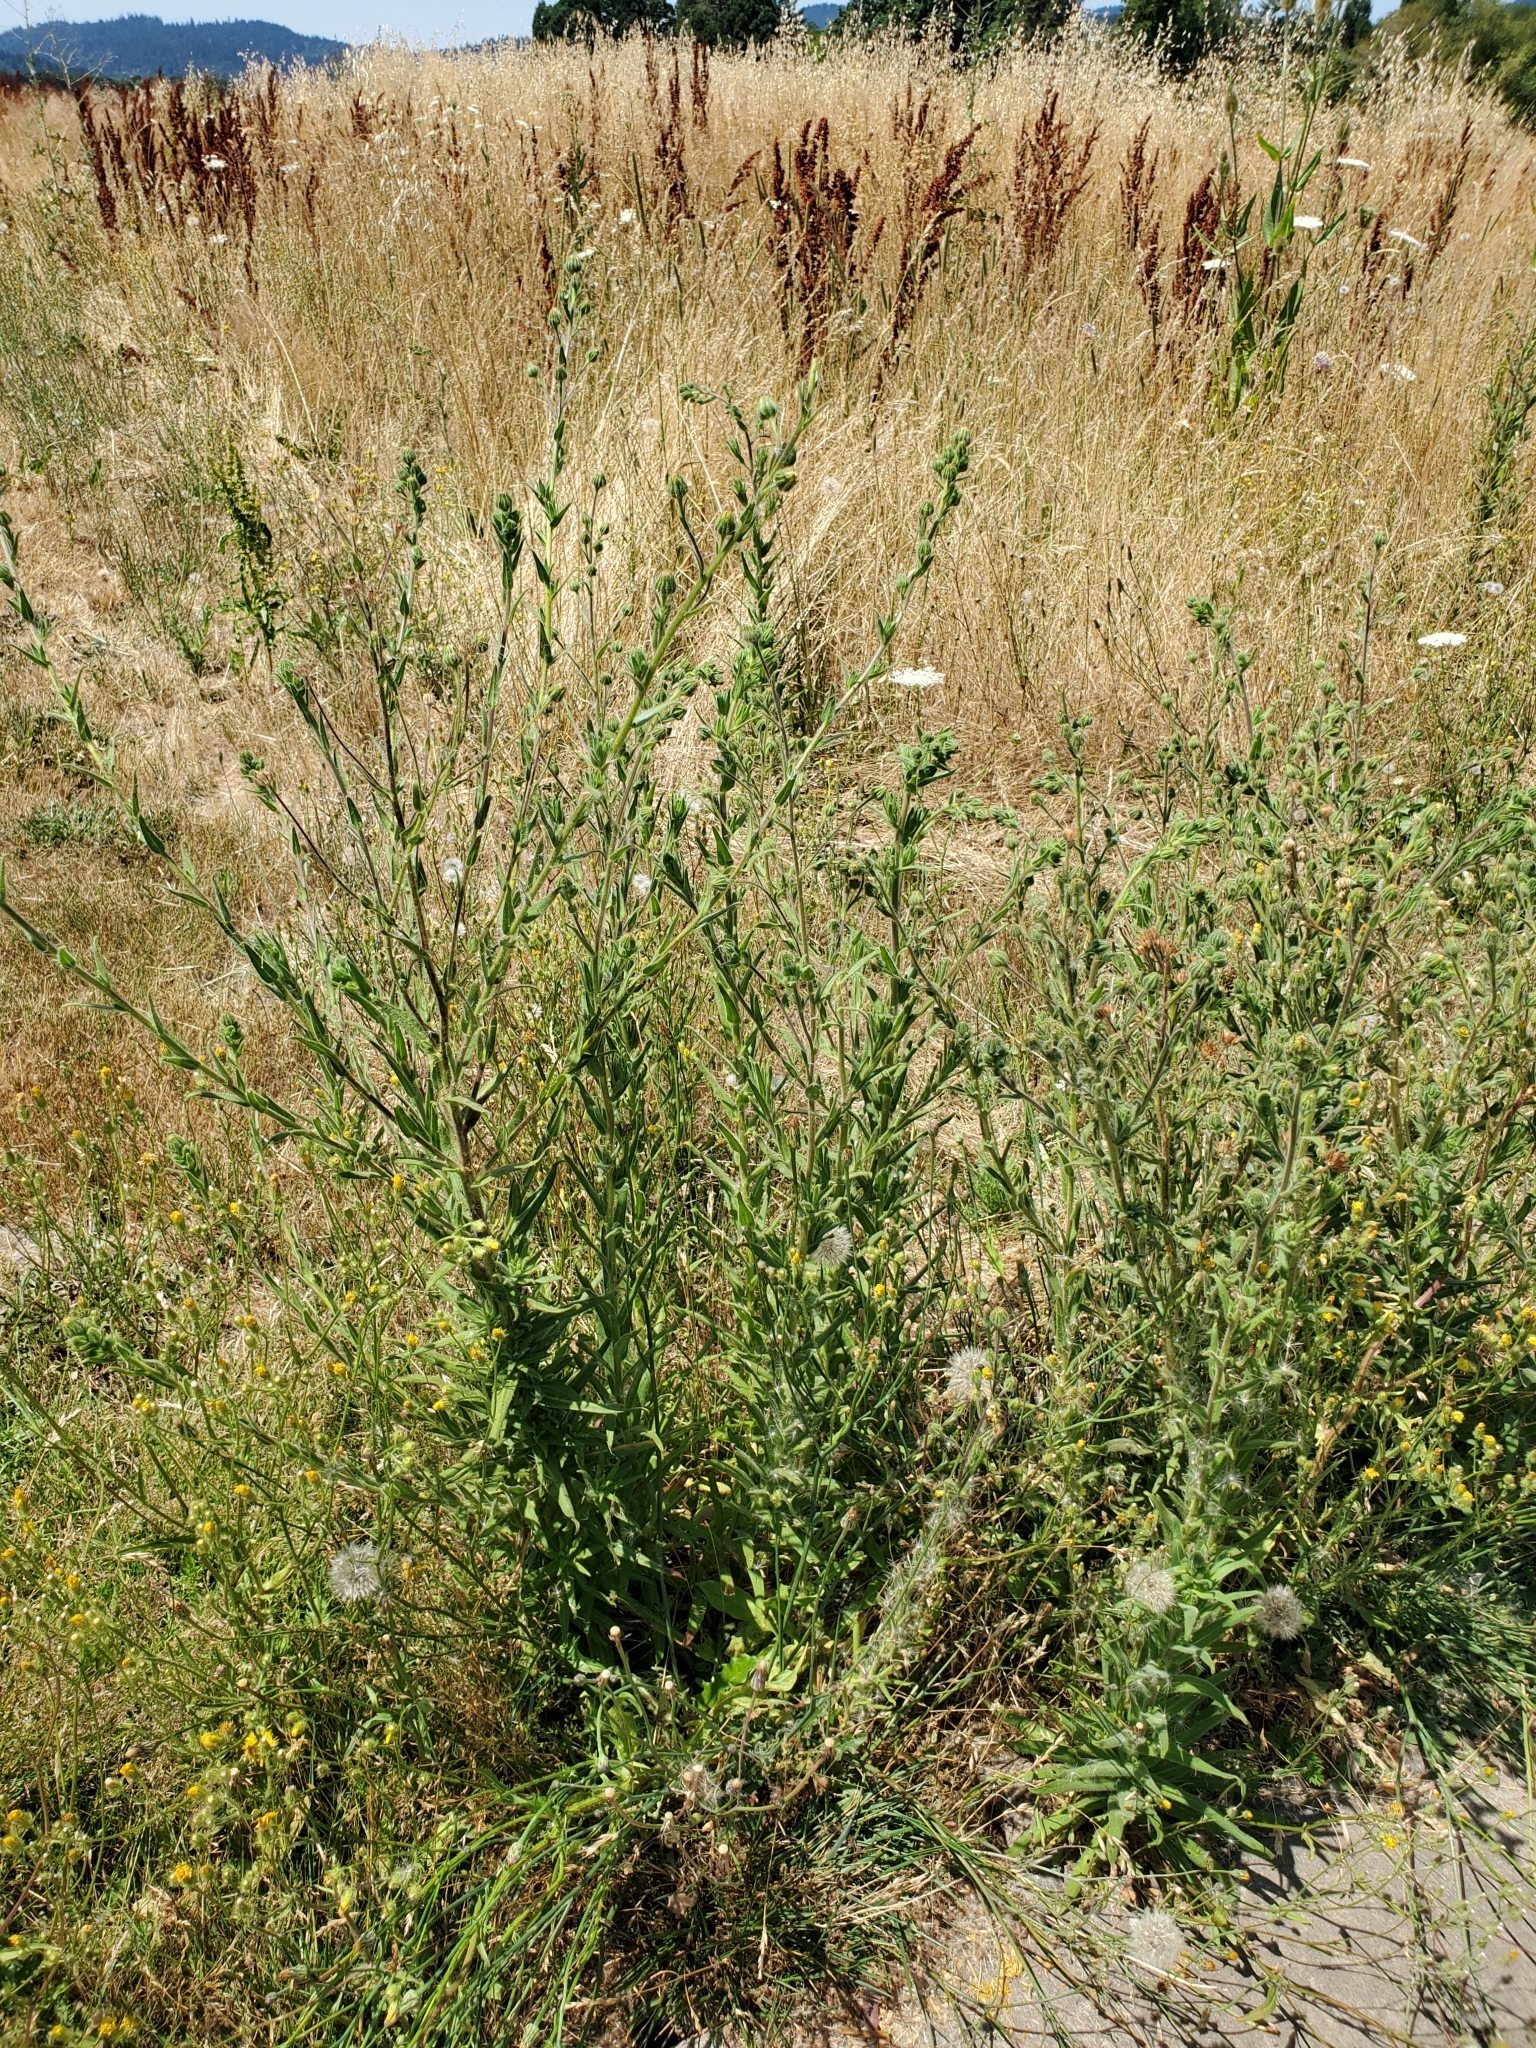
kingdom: Plantae
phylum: Tracheophyta
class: Magnoliopsida
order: Asterales
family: Asteraceae
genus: Madia
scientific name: Madia sativa
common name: Coast tarweed
